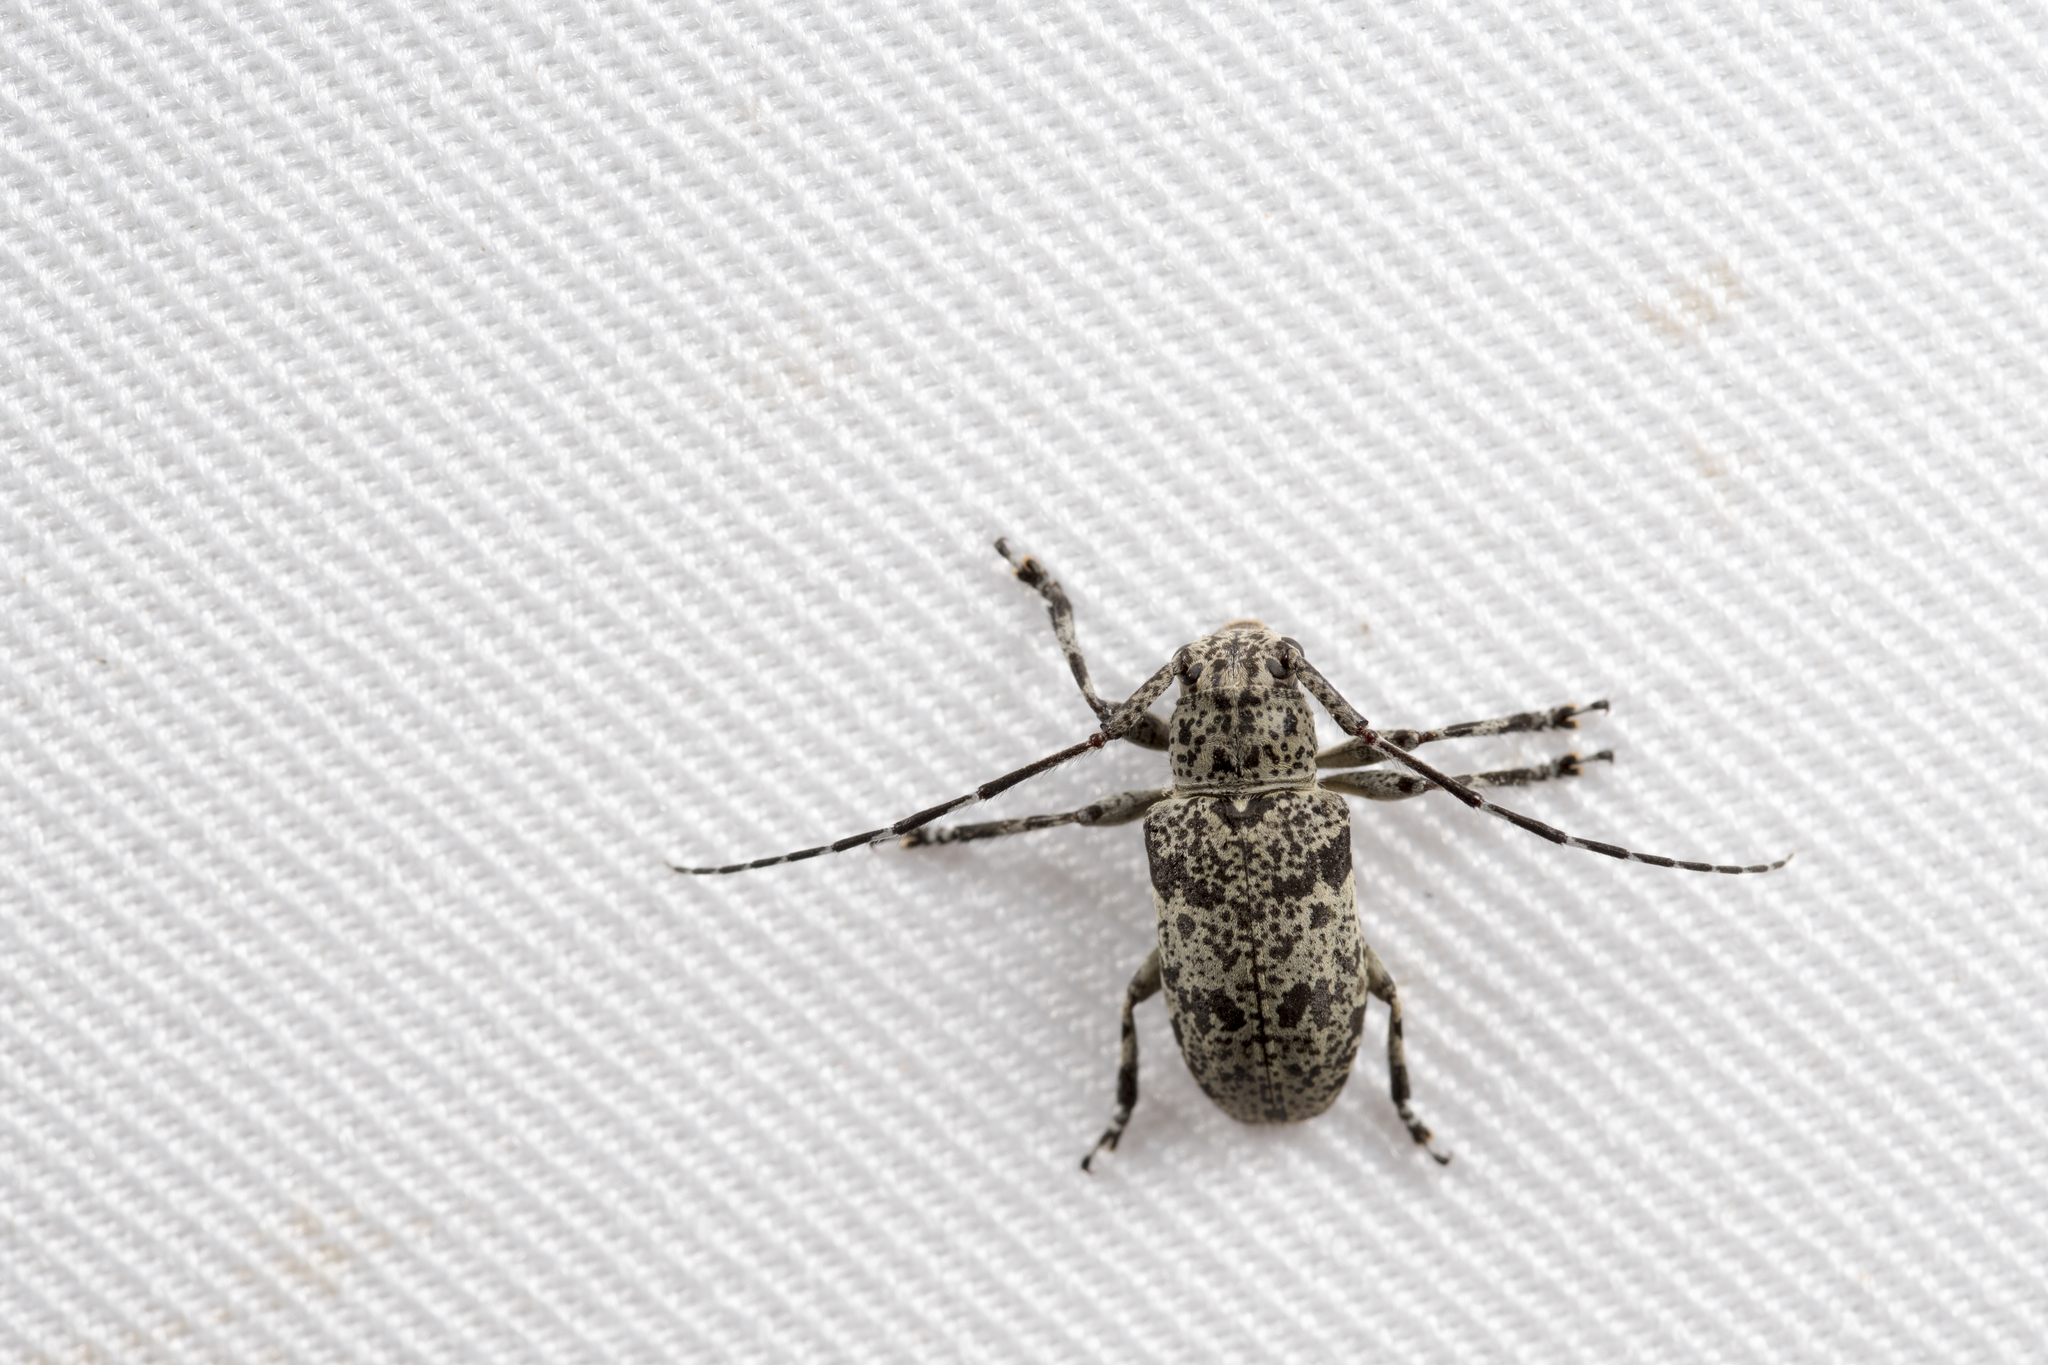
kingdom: Animalia
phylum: Arthropoda
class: Insecta
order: Coleoptera
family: Cerambycidae
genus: Agelasta
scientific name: Agelasta tonkinea
